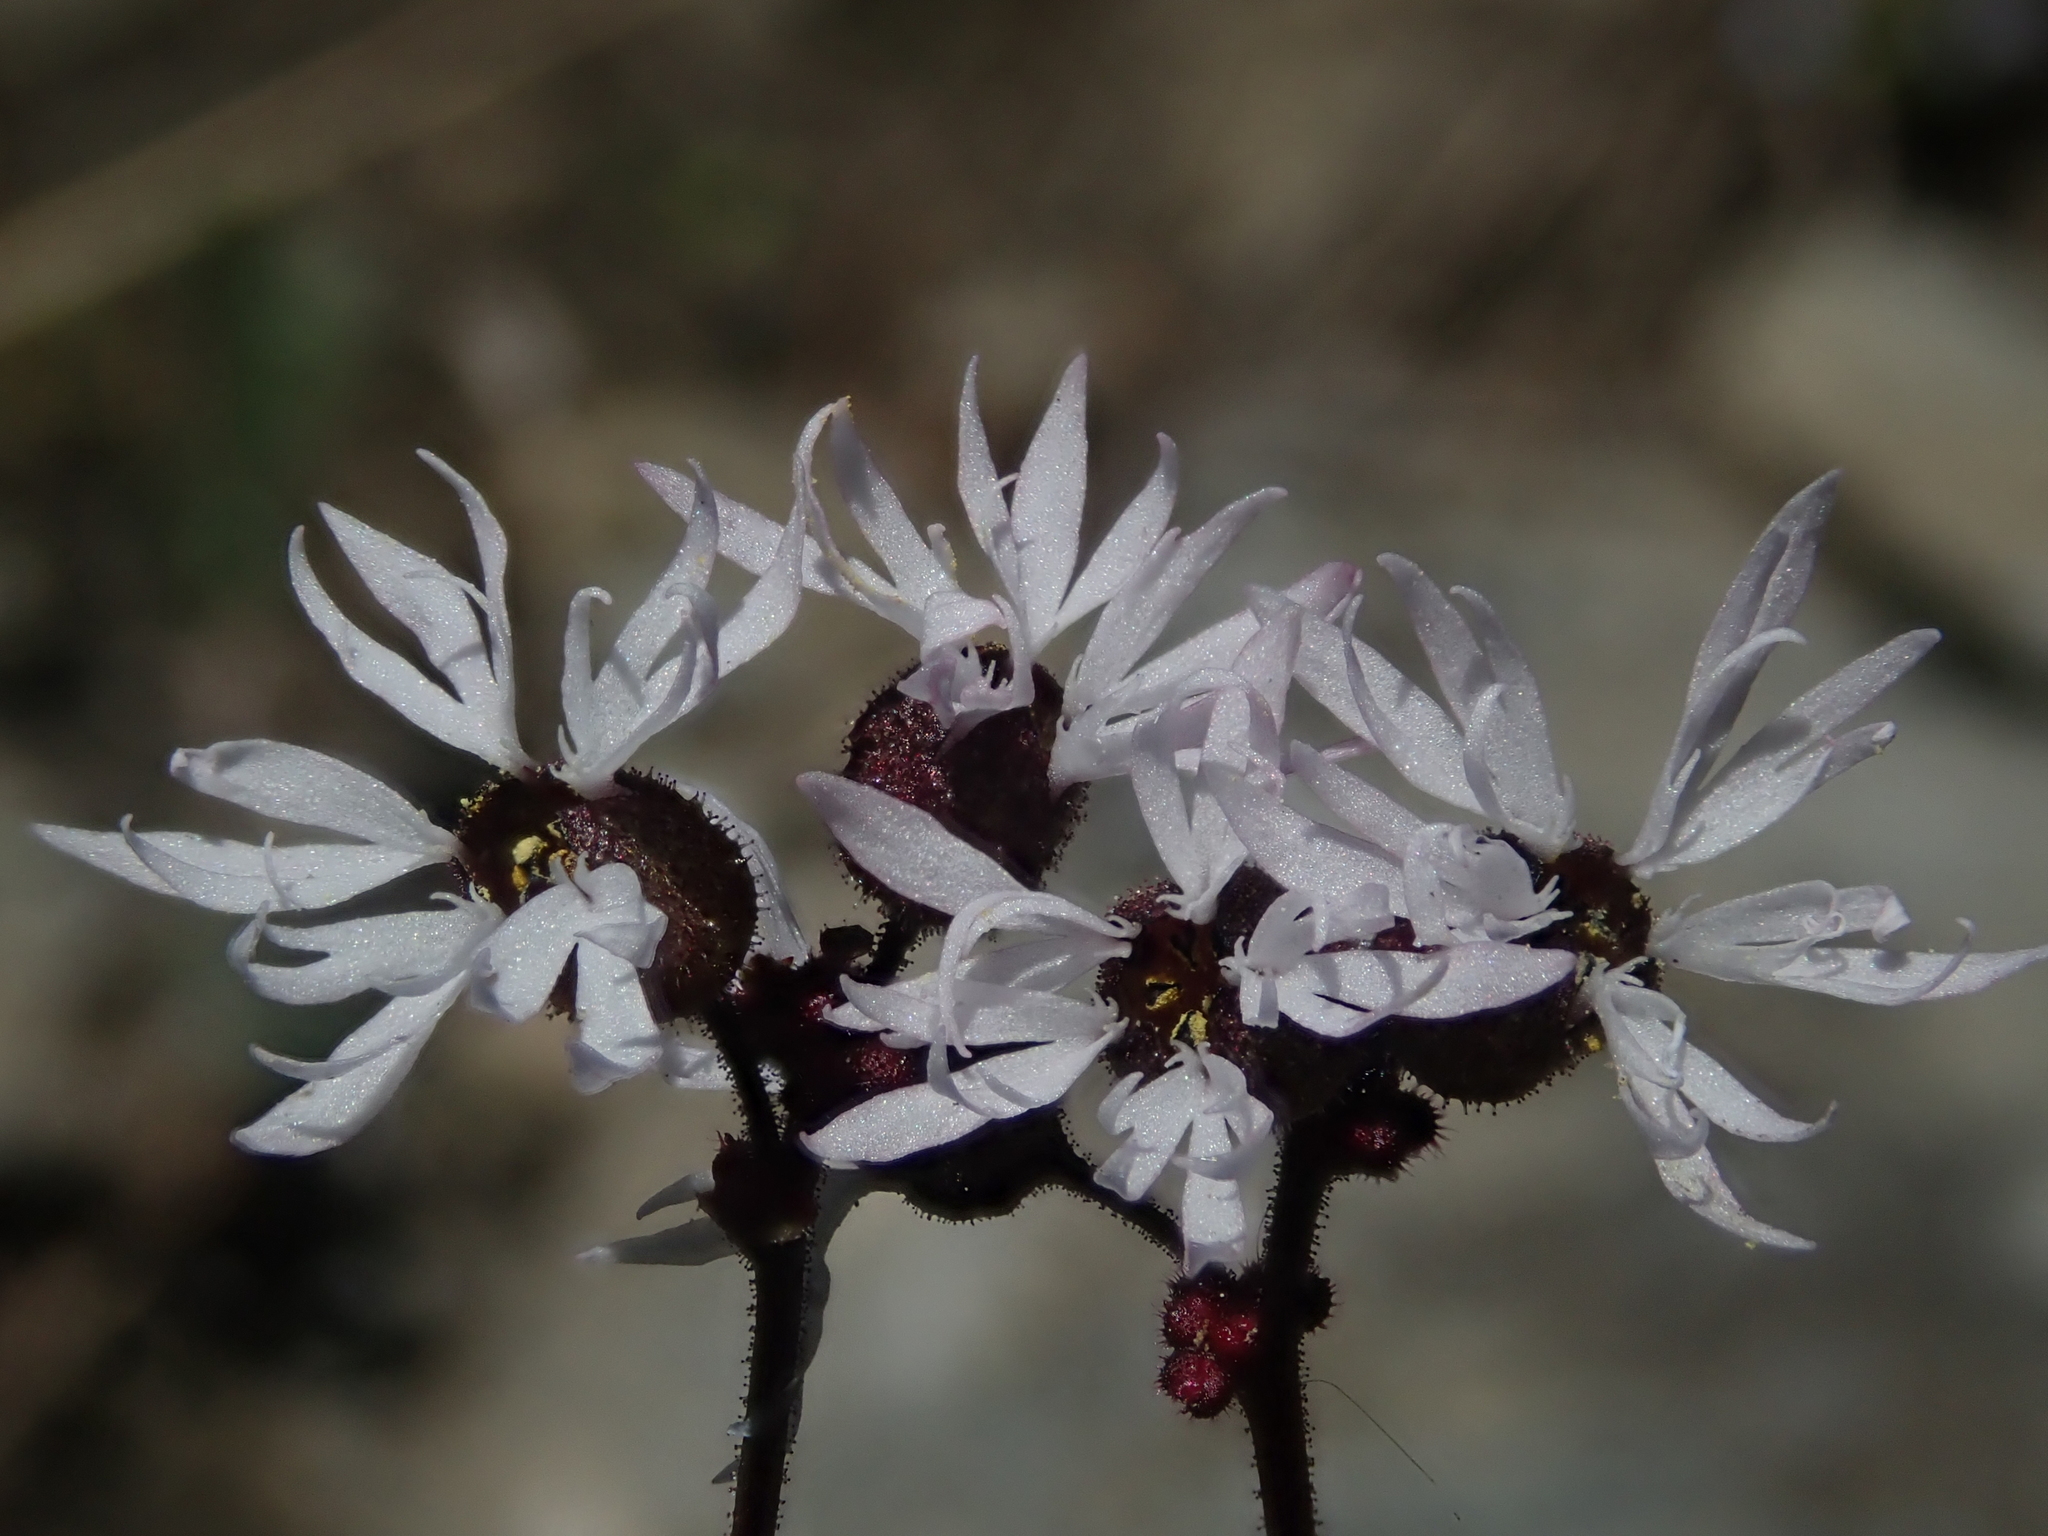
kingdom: Plantae
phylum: Tracheophyta
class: Magnoliopsida
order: Saxifragales
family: Saxifragaceae
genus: Lithophragma
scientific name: Lithophragma glabrum
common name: Bulbous prairie-star
